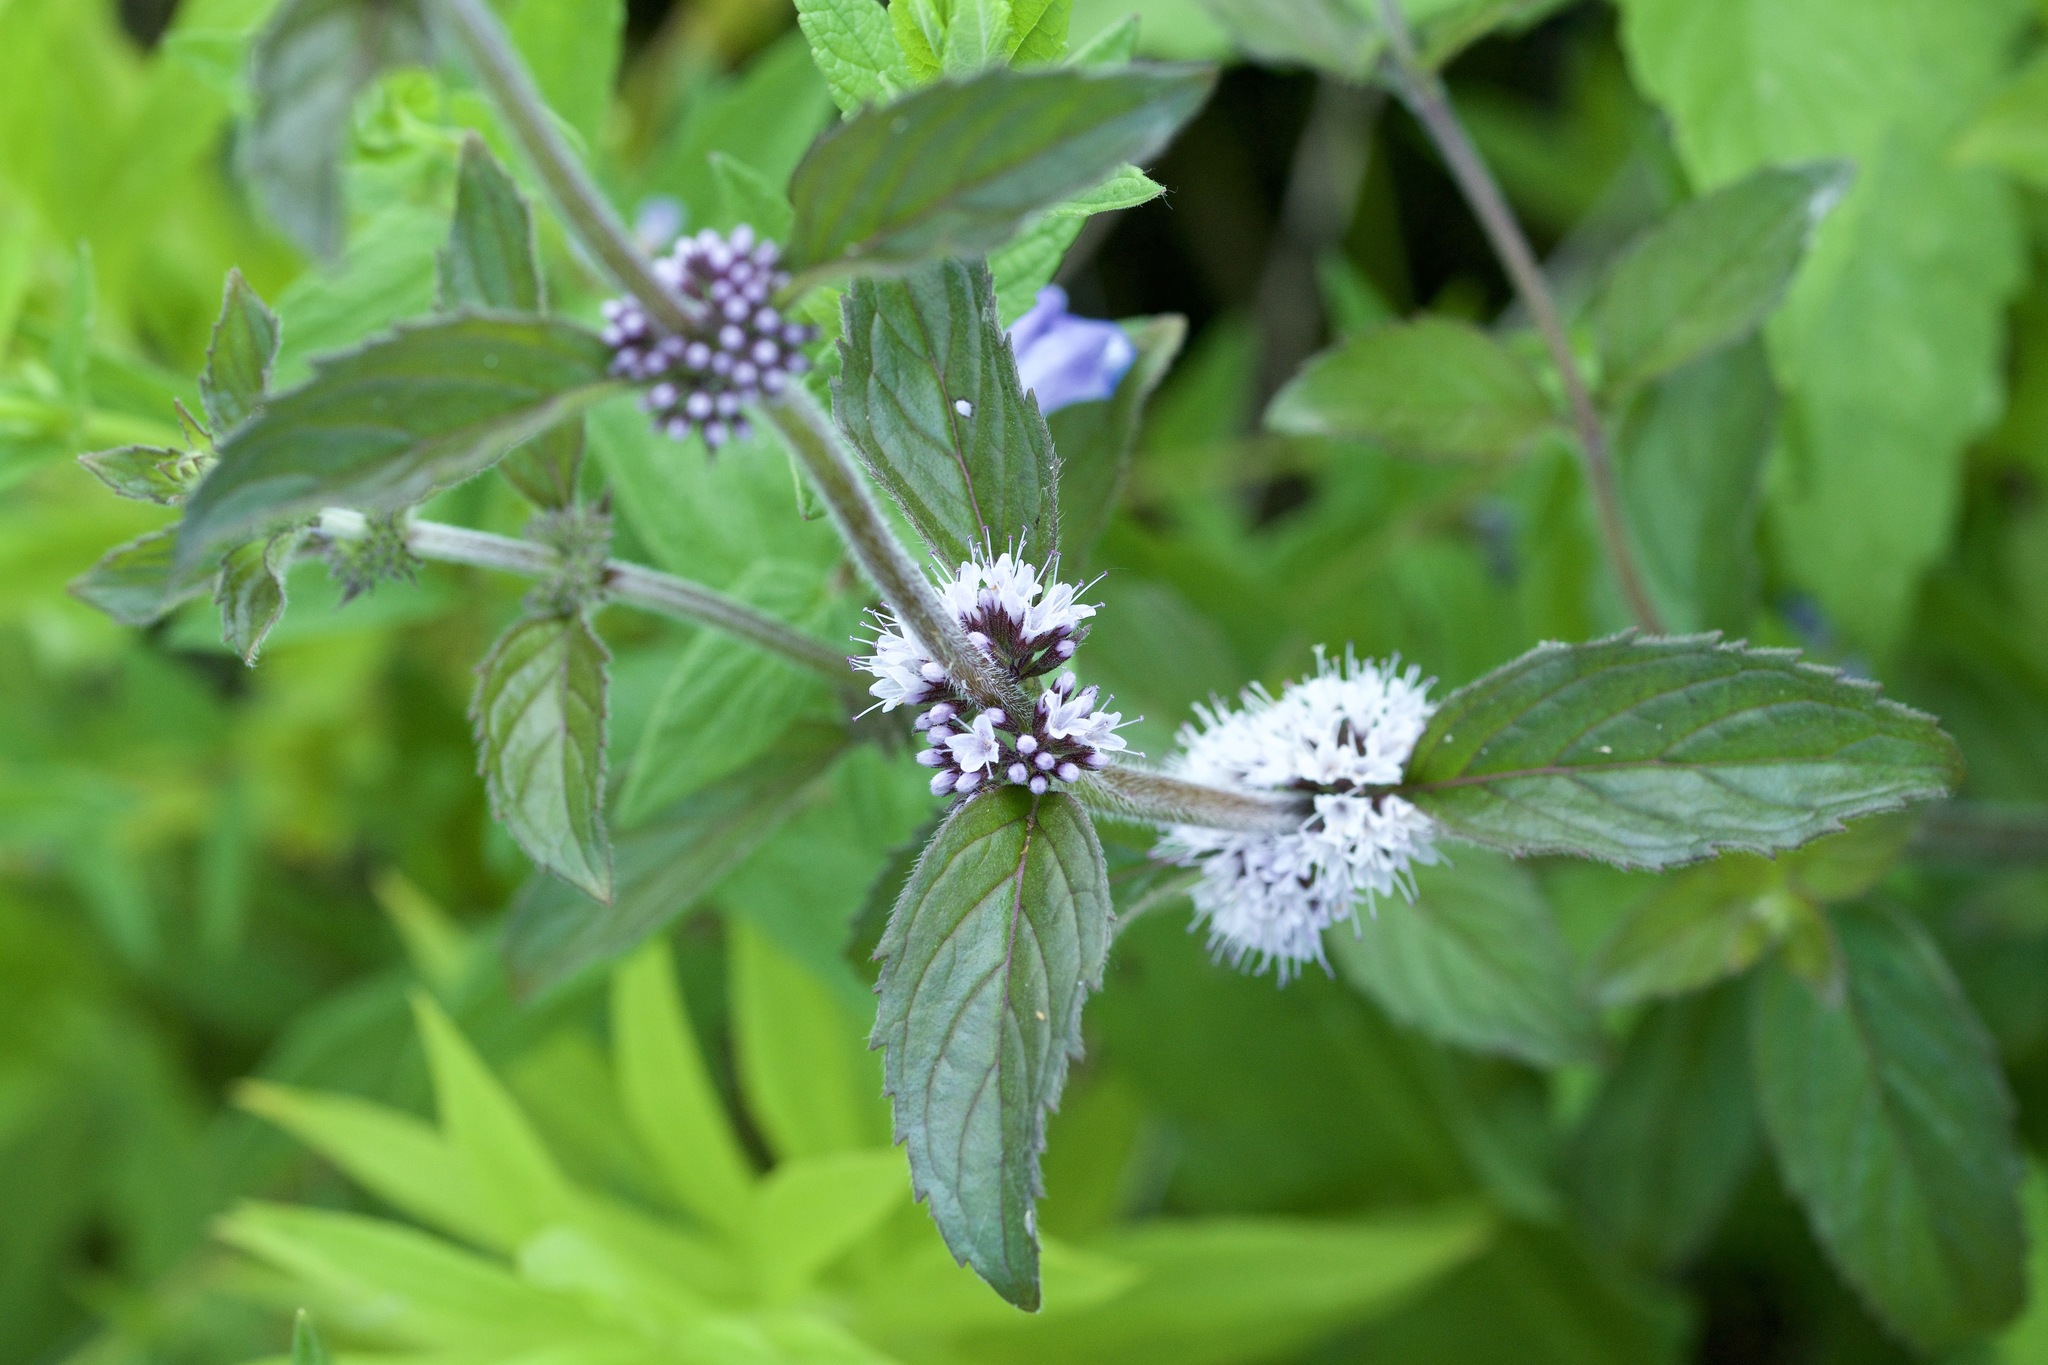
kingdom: Plantae
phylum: Tracheophyta
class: Magnoliopsida
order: Lamiales
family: Lamiaceae
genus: Mentha
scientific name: Mentha arvensis
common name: Corn mint
